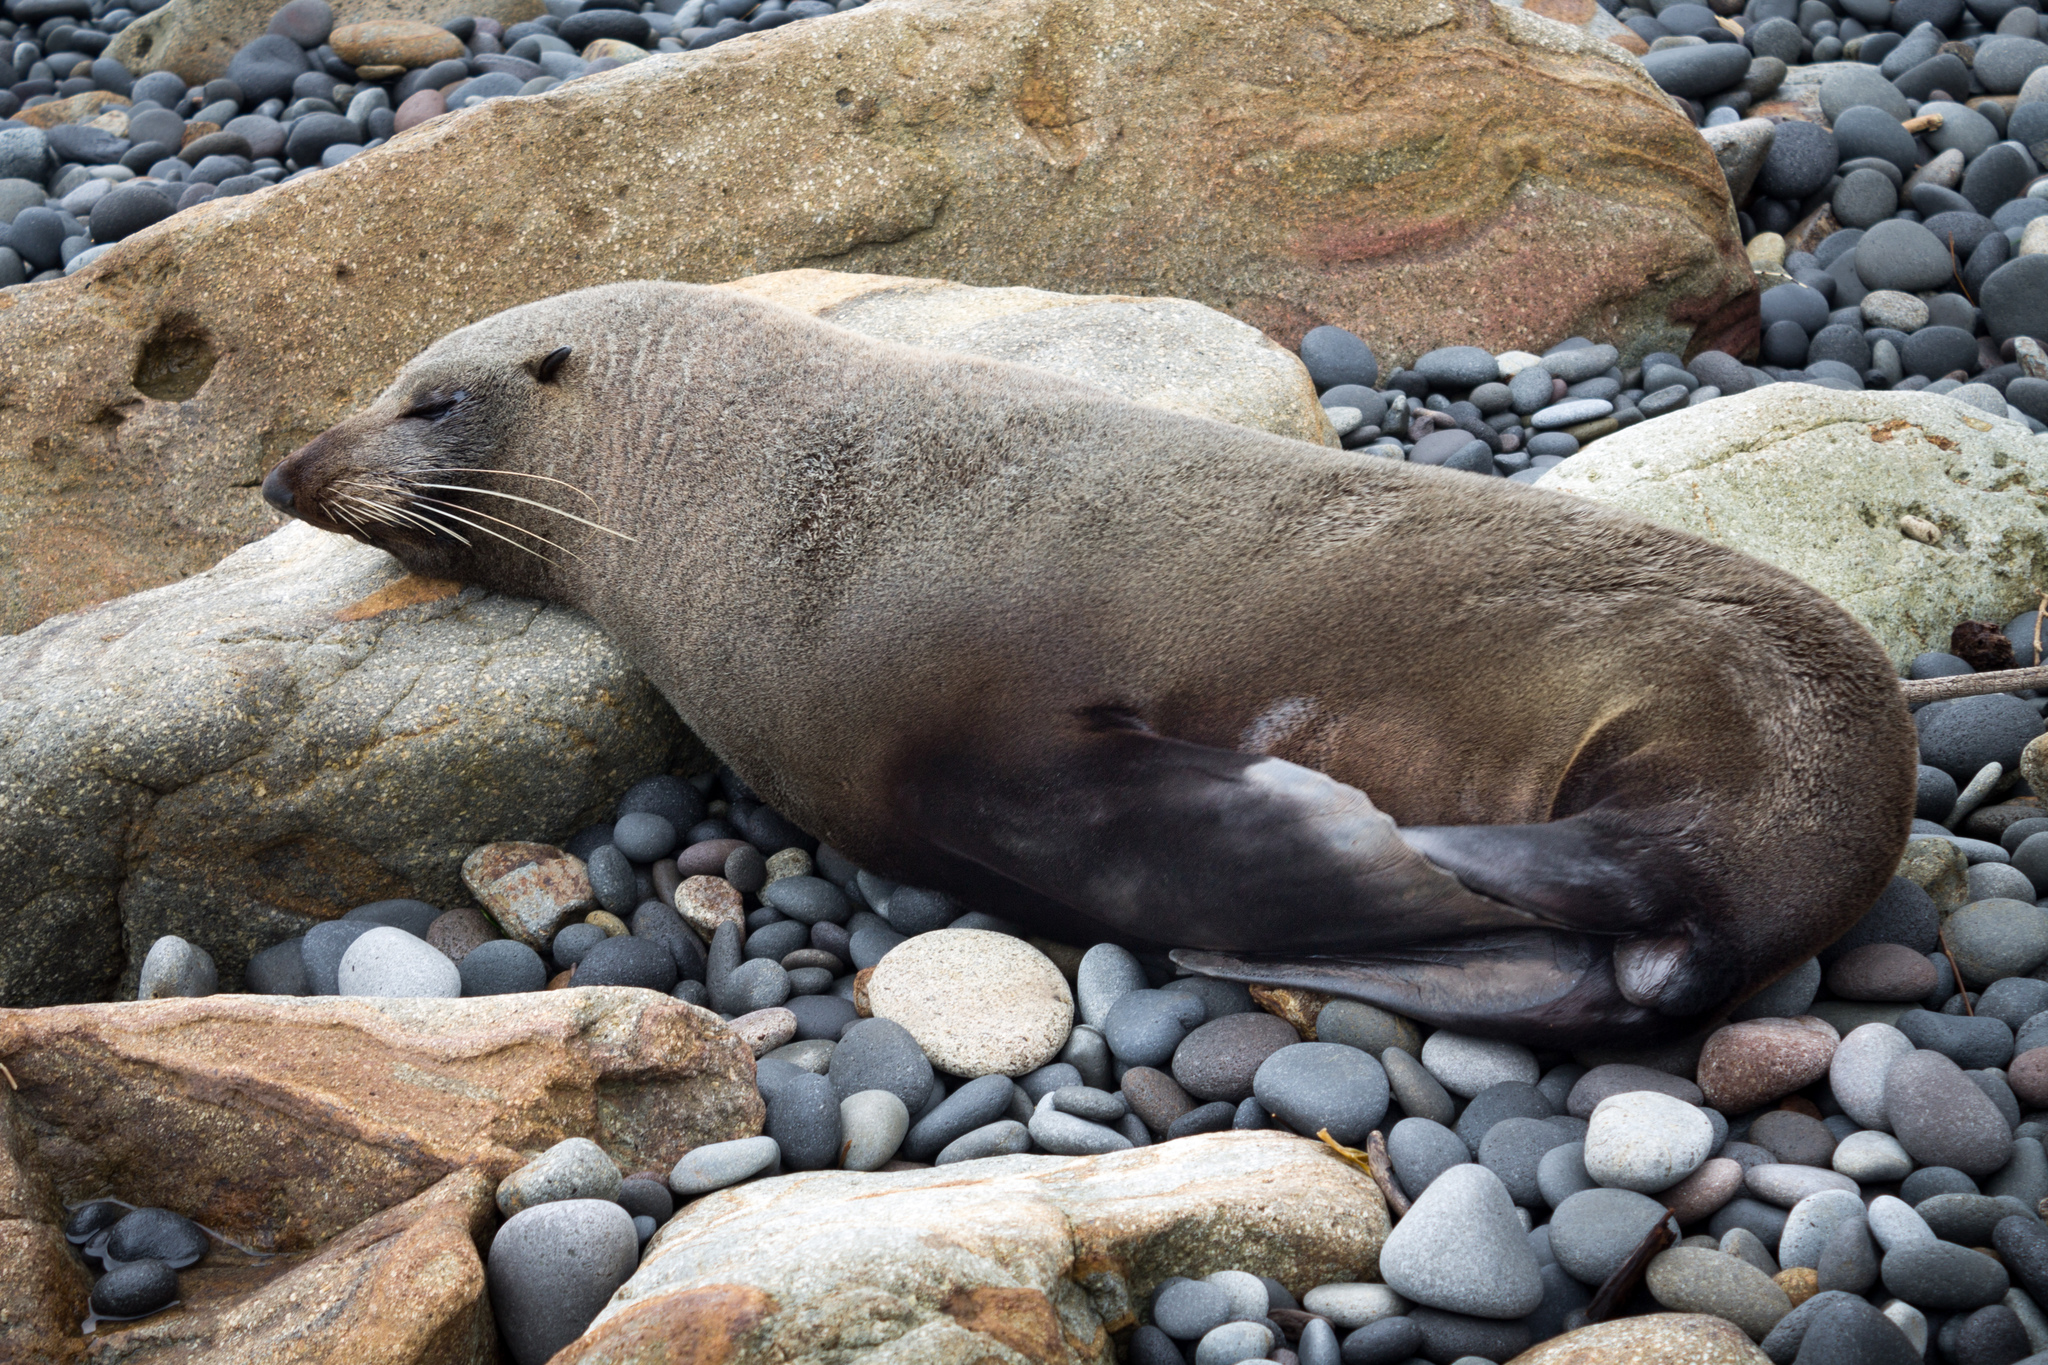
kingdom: Animalia
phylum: Chordata
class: Mammalia
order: Carnivora
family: Otariidae
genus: Arctocephalus
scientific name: Arctocephalus forsteri
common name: New zealand fur seal
